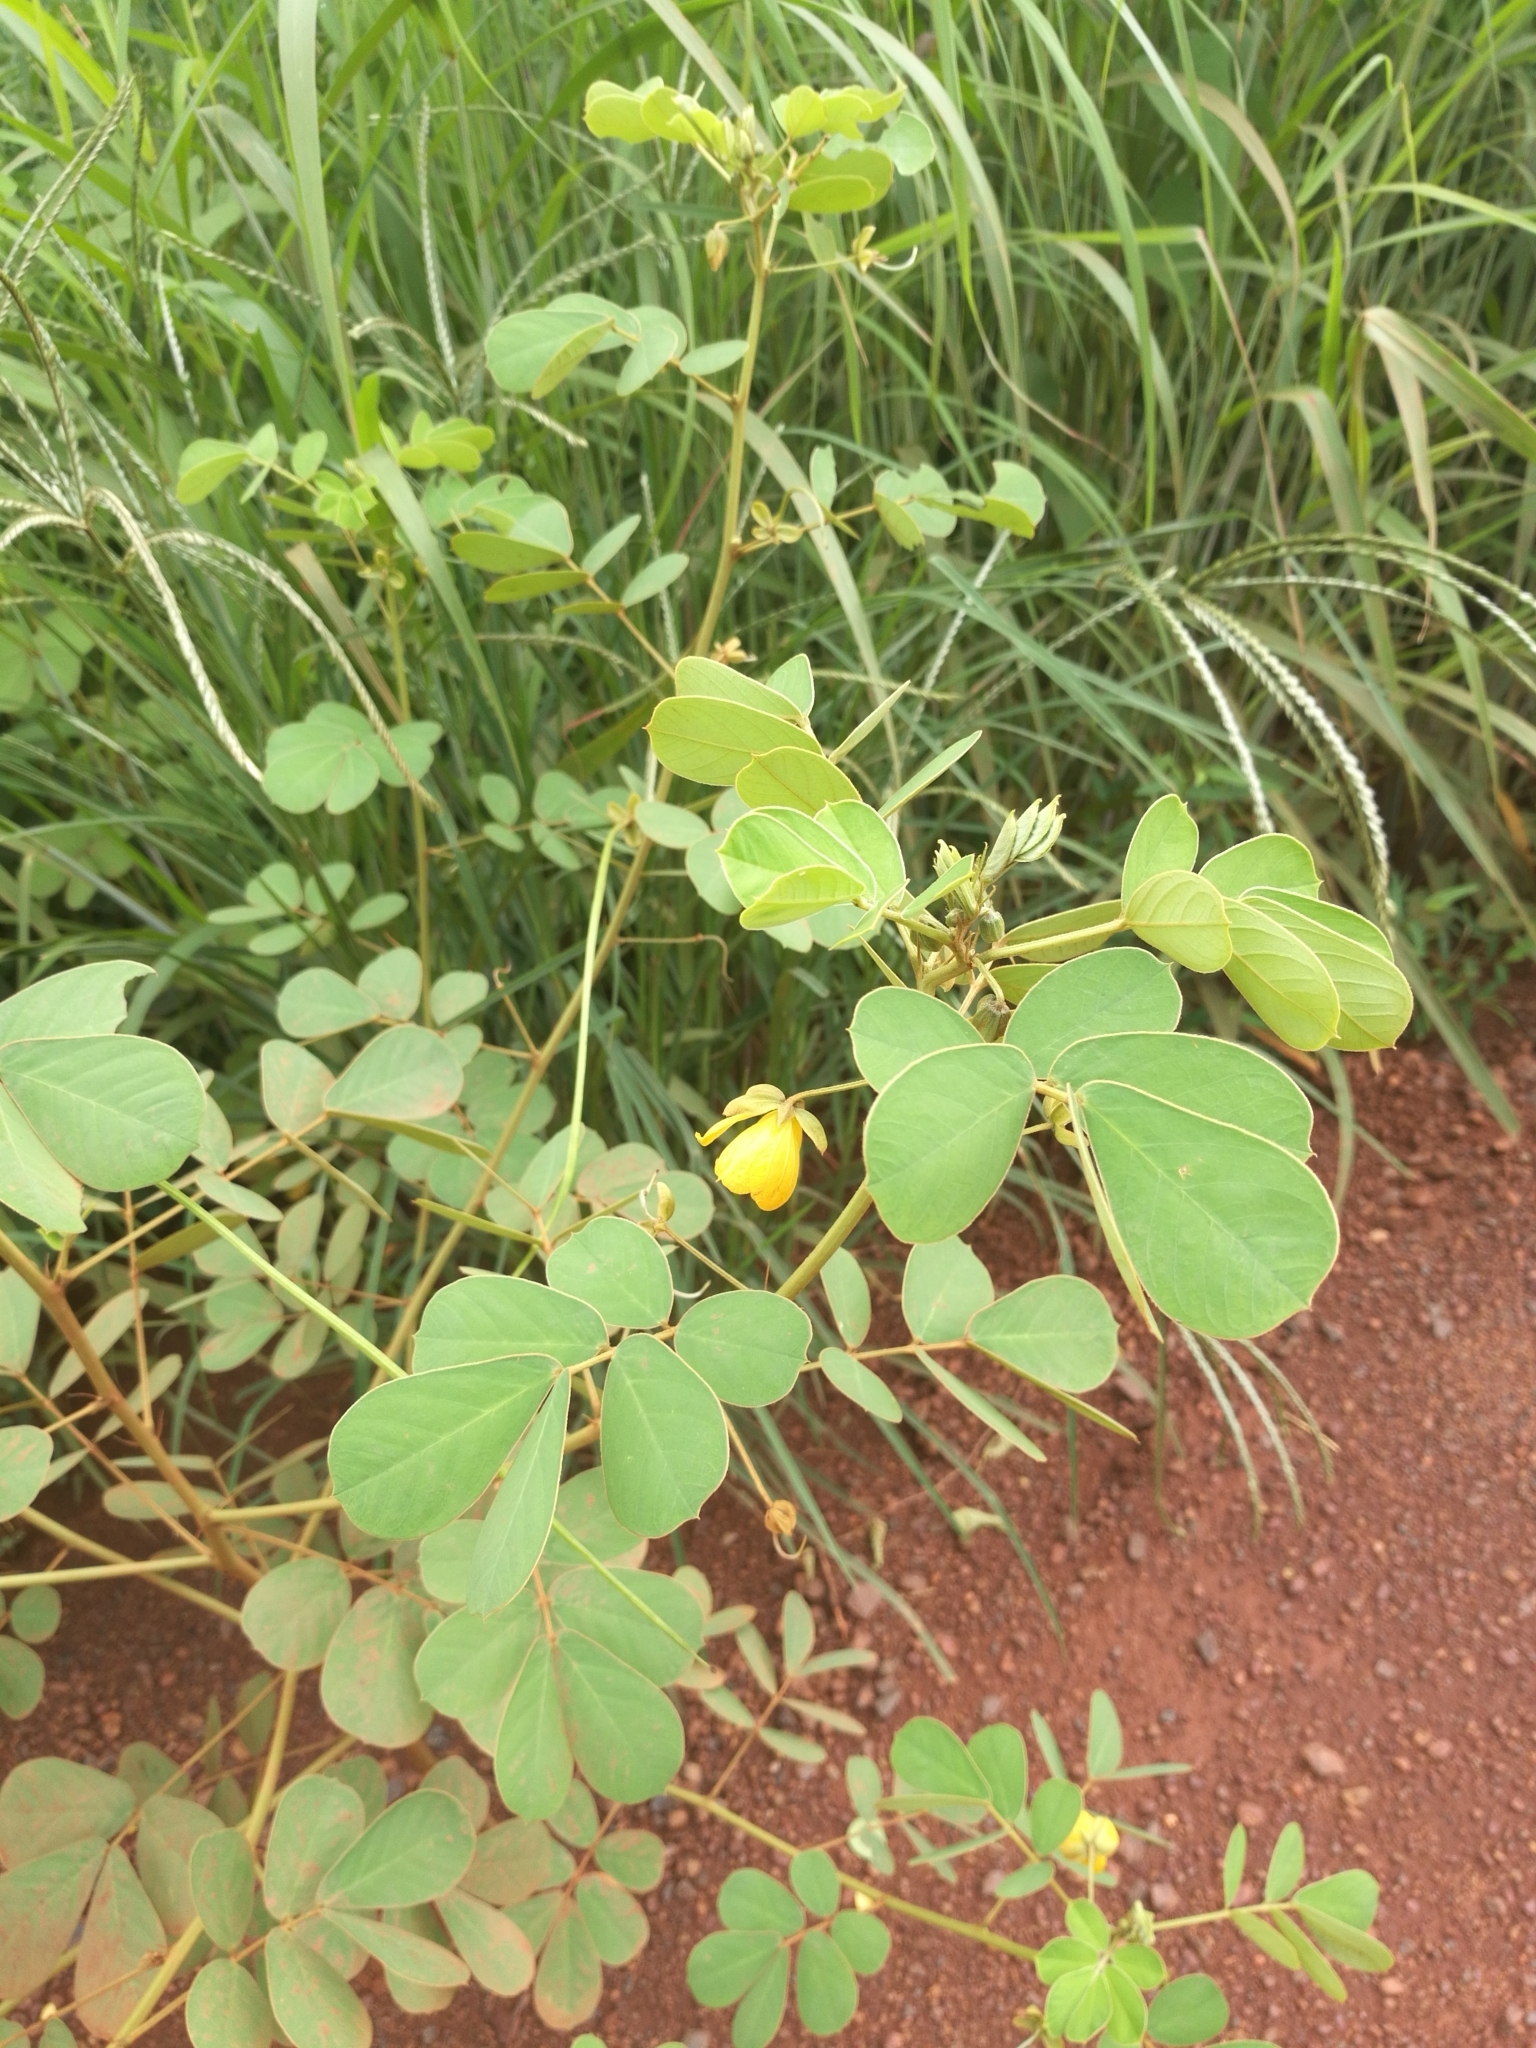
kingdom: Plantae
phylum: Tracheophyta
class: Magnoliopsida
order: Fabales
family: Fabaceae
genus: Senna
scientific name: Senna obtusifolia
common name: Java-bean
